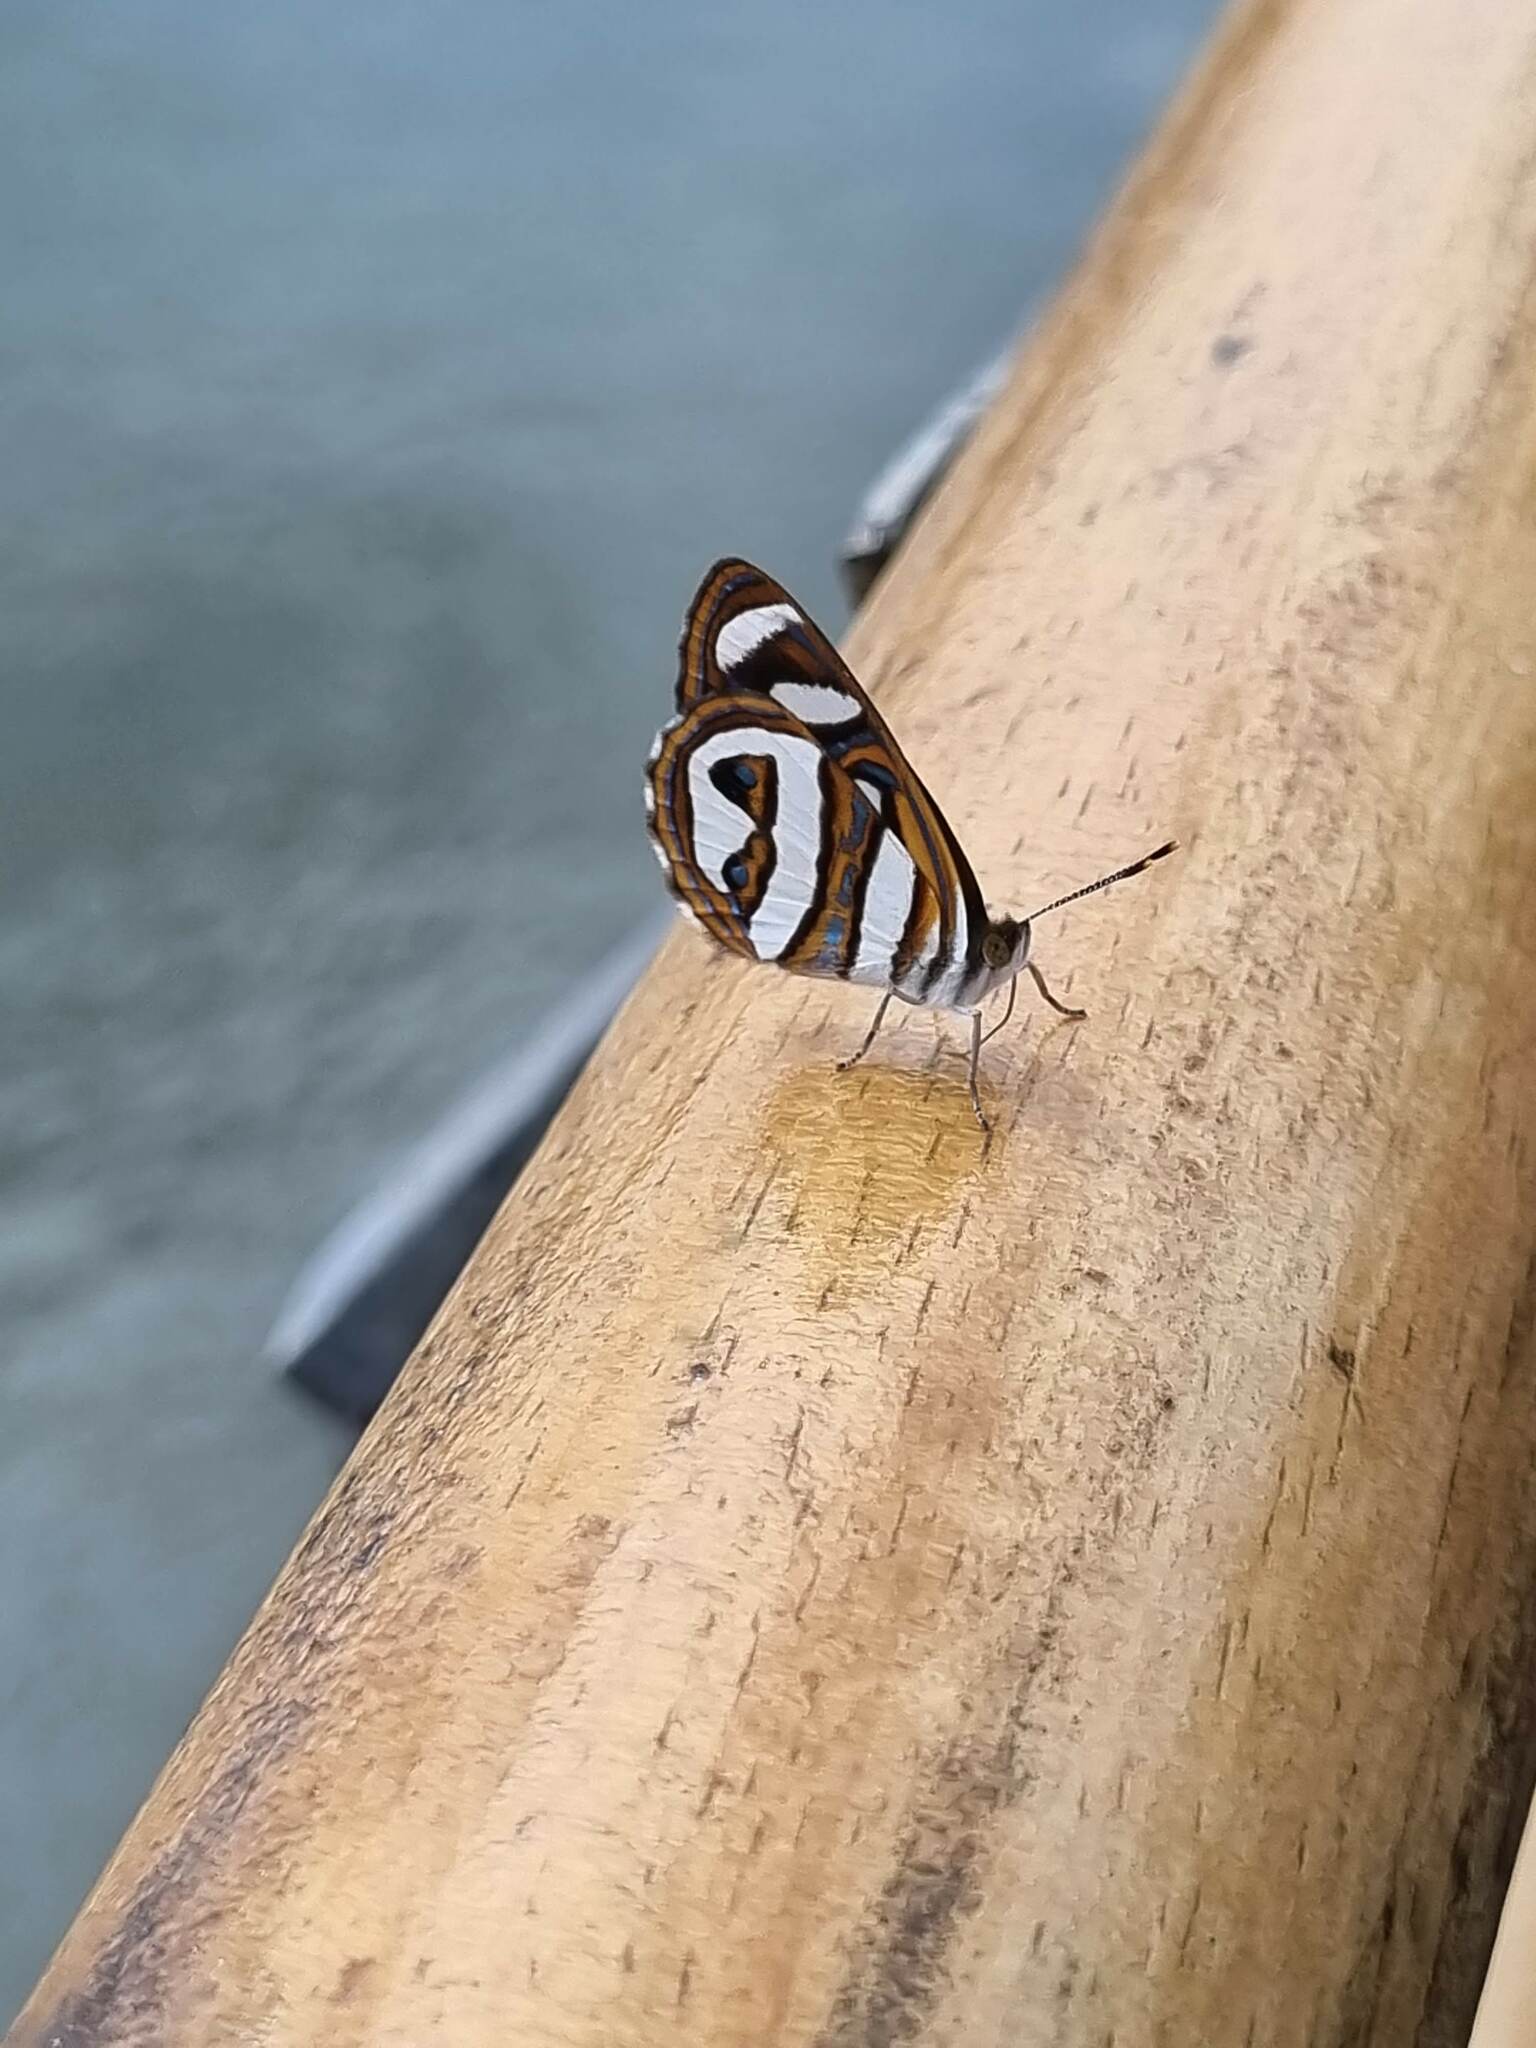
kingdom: Animalia
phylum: Arthropoda
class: Insecta
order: Lepidoptera
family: Nymphalidae
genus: Dynamine
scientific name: Dynamine artemisia
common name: Small-eyed sailor
